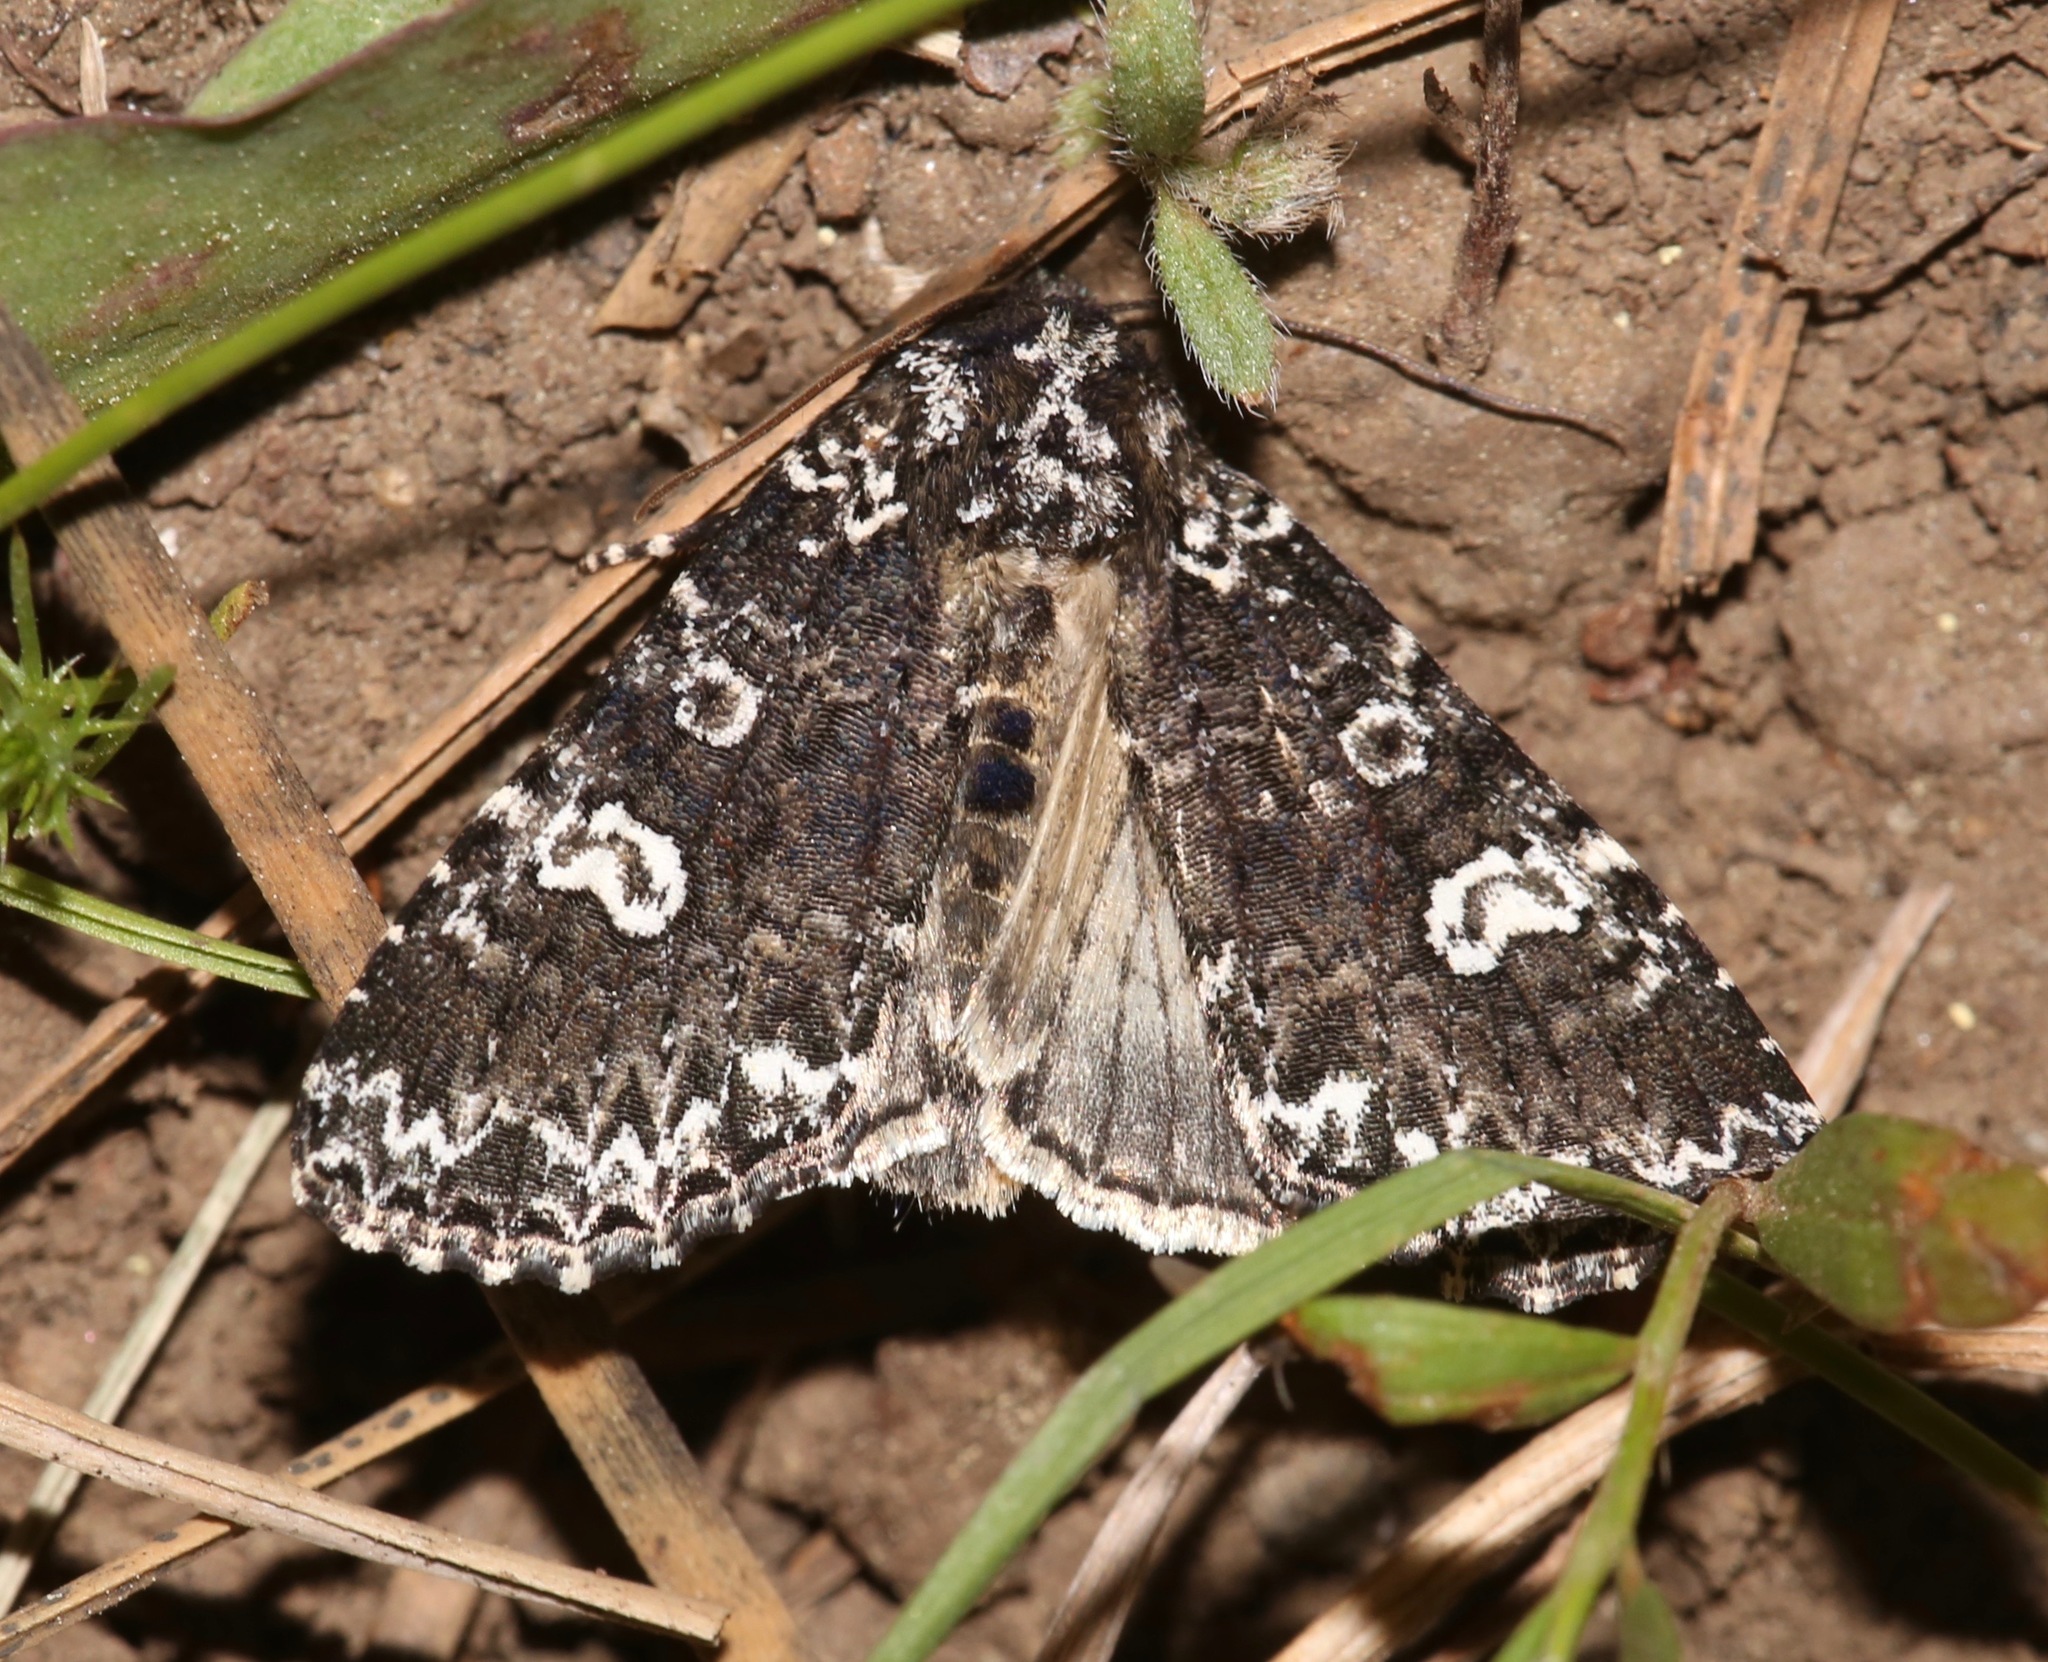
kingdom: Animalia
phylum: Arthropoda
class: Insecta
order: Lepidoptera
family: Noctuidae
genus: Melanchra
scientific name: Melanchra adjuncta
